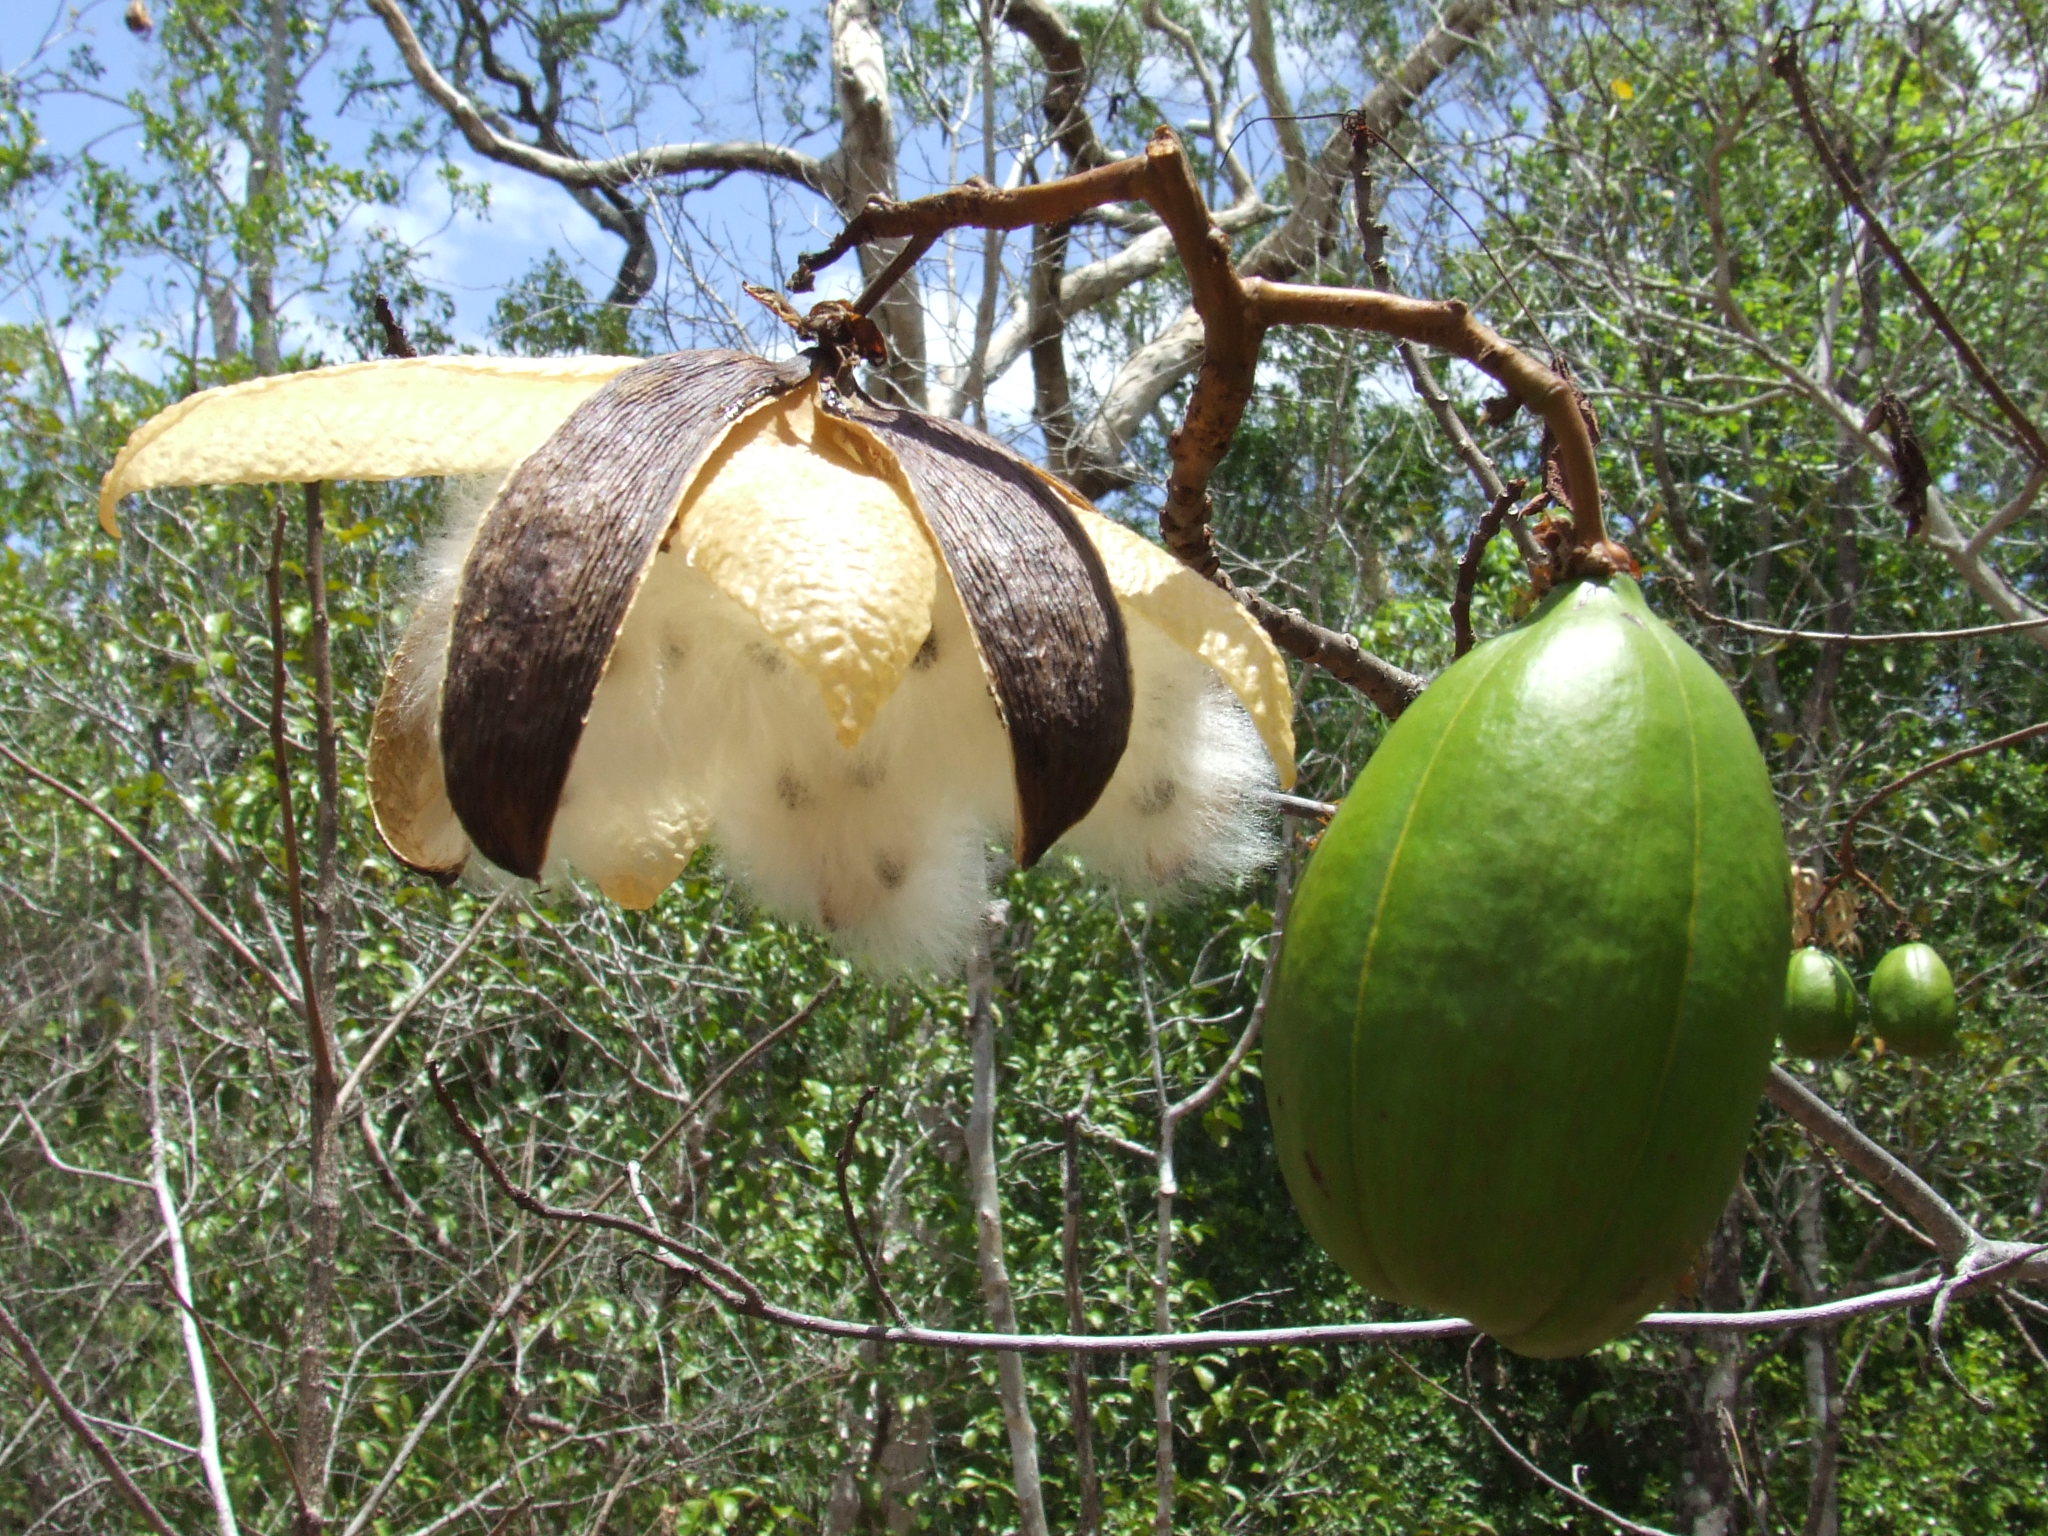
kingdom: Plantae
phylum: Tracheophyta
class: Magnoliopsida
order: Malvales
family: Cochlospermaceae
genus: Cochlospermum
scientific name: Cochlospermum gillivraei
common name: Cottontree
